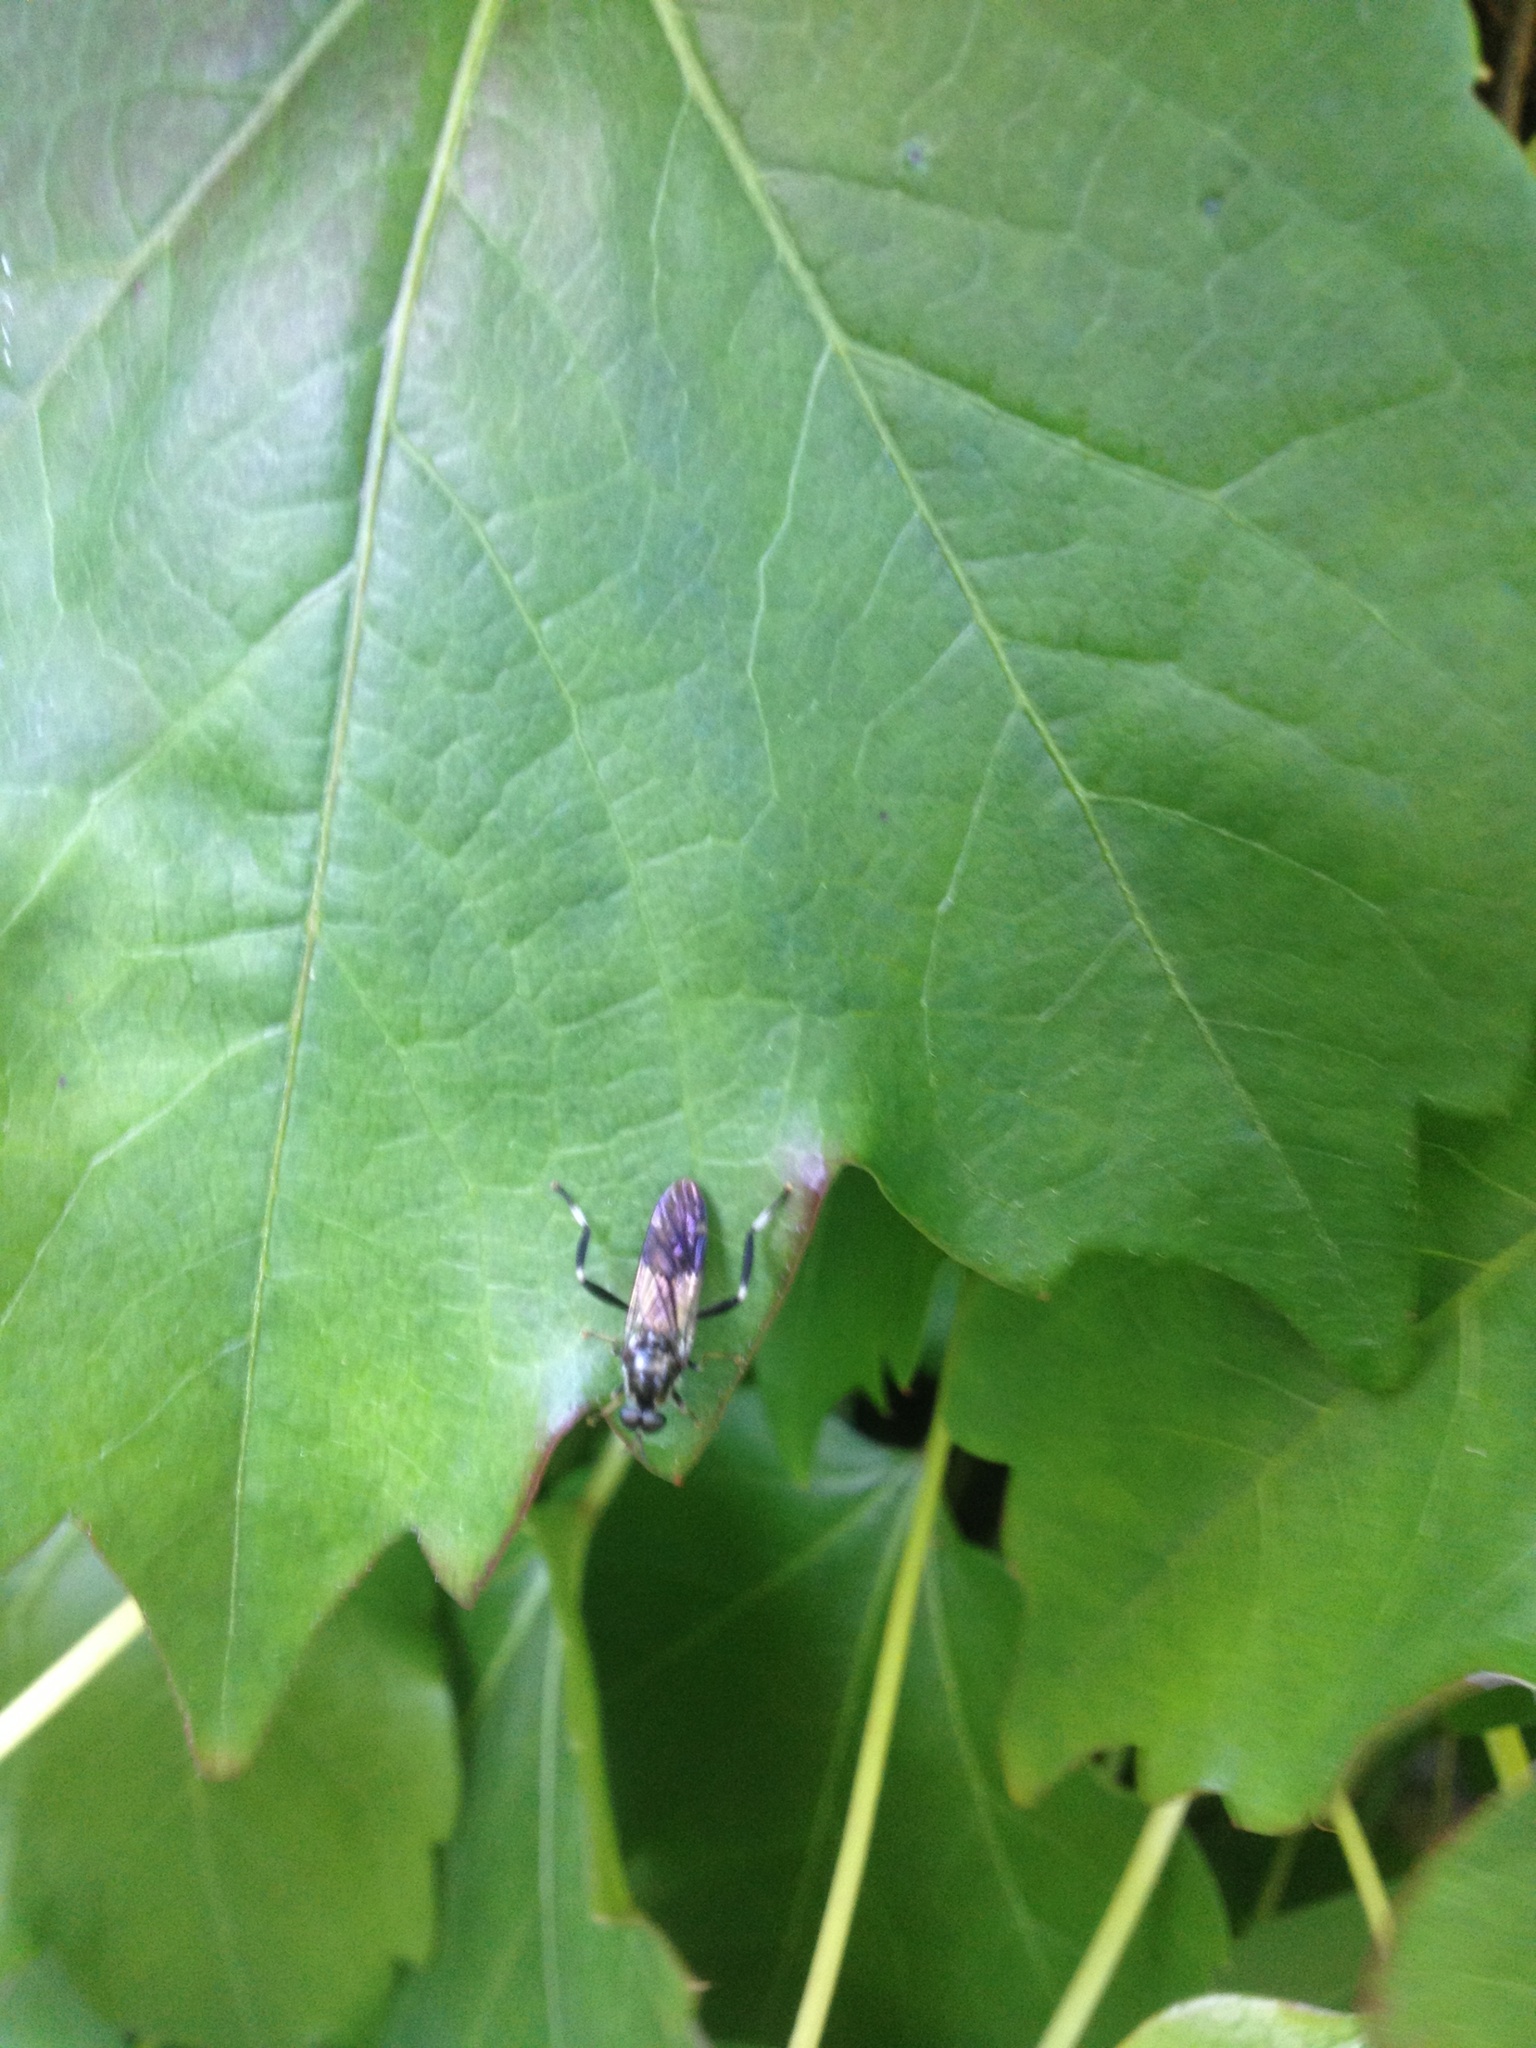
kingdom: Animalia
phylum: Arthropoda
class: Insecta
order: Diptera
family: Stratiomyidae
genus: Exaireta
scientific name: Exaireta spinigera
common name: Blue soldier fly
